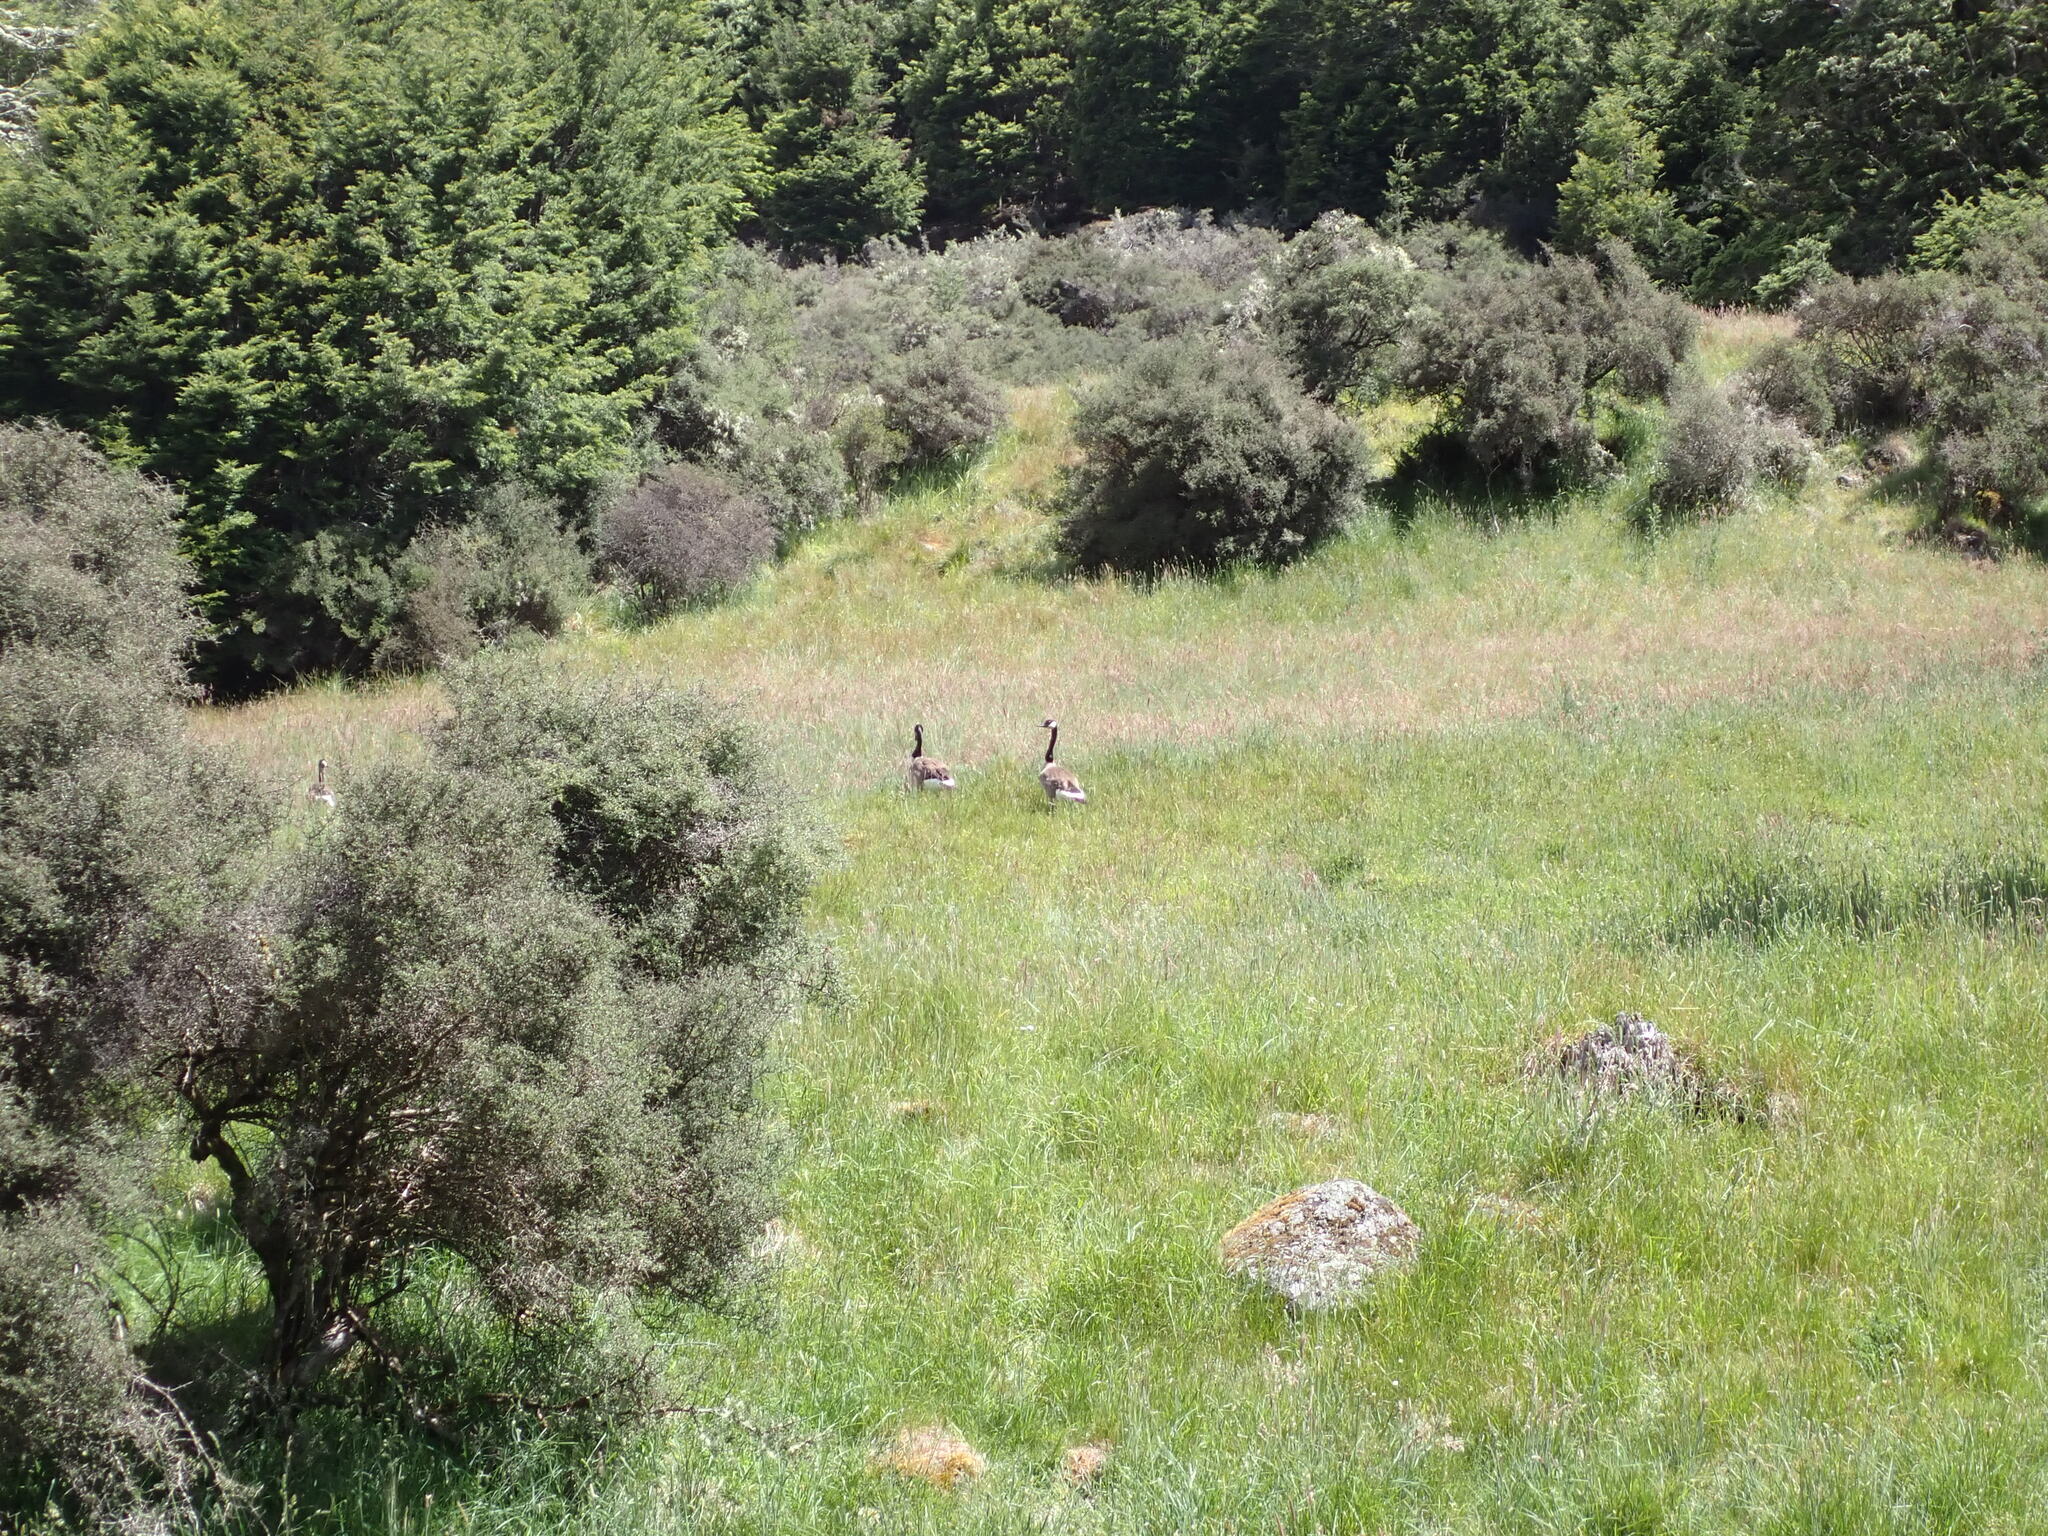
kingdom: Animalia
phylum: Chordata
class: Aves
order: Anseriformes
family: Anatidae
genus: Branta
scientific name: Branta canadensis
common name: Canada goose
